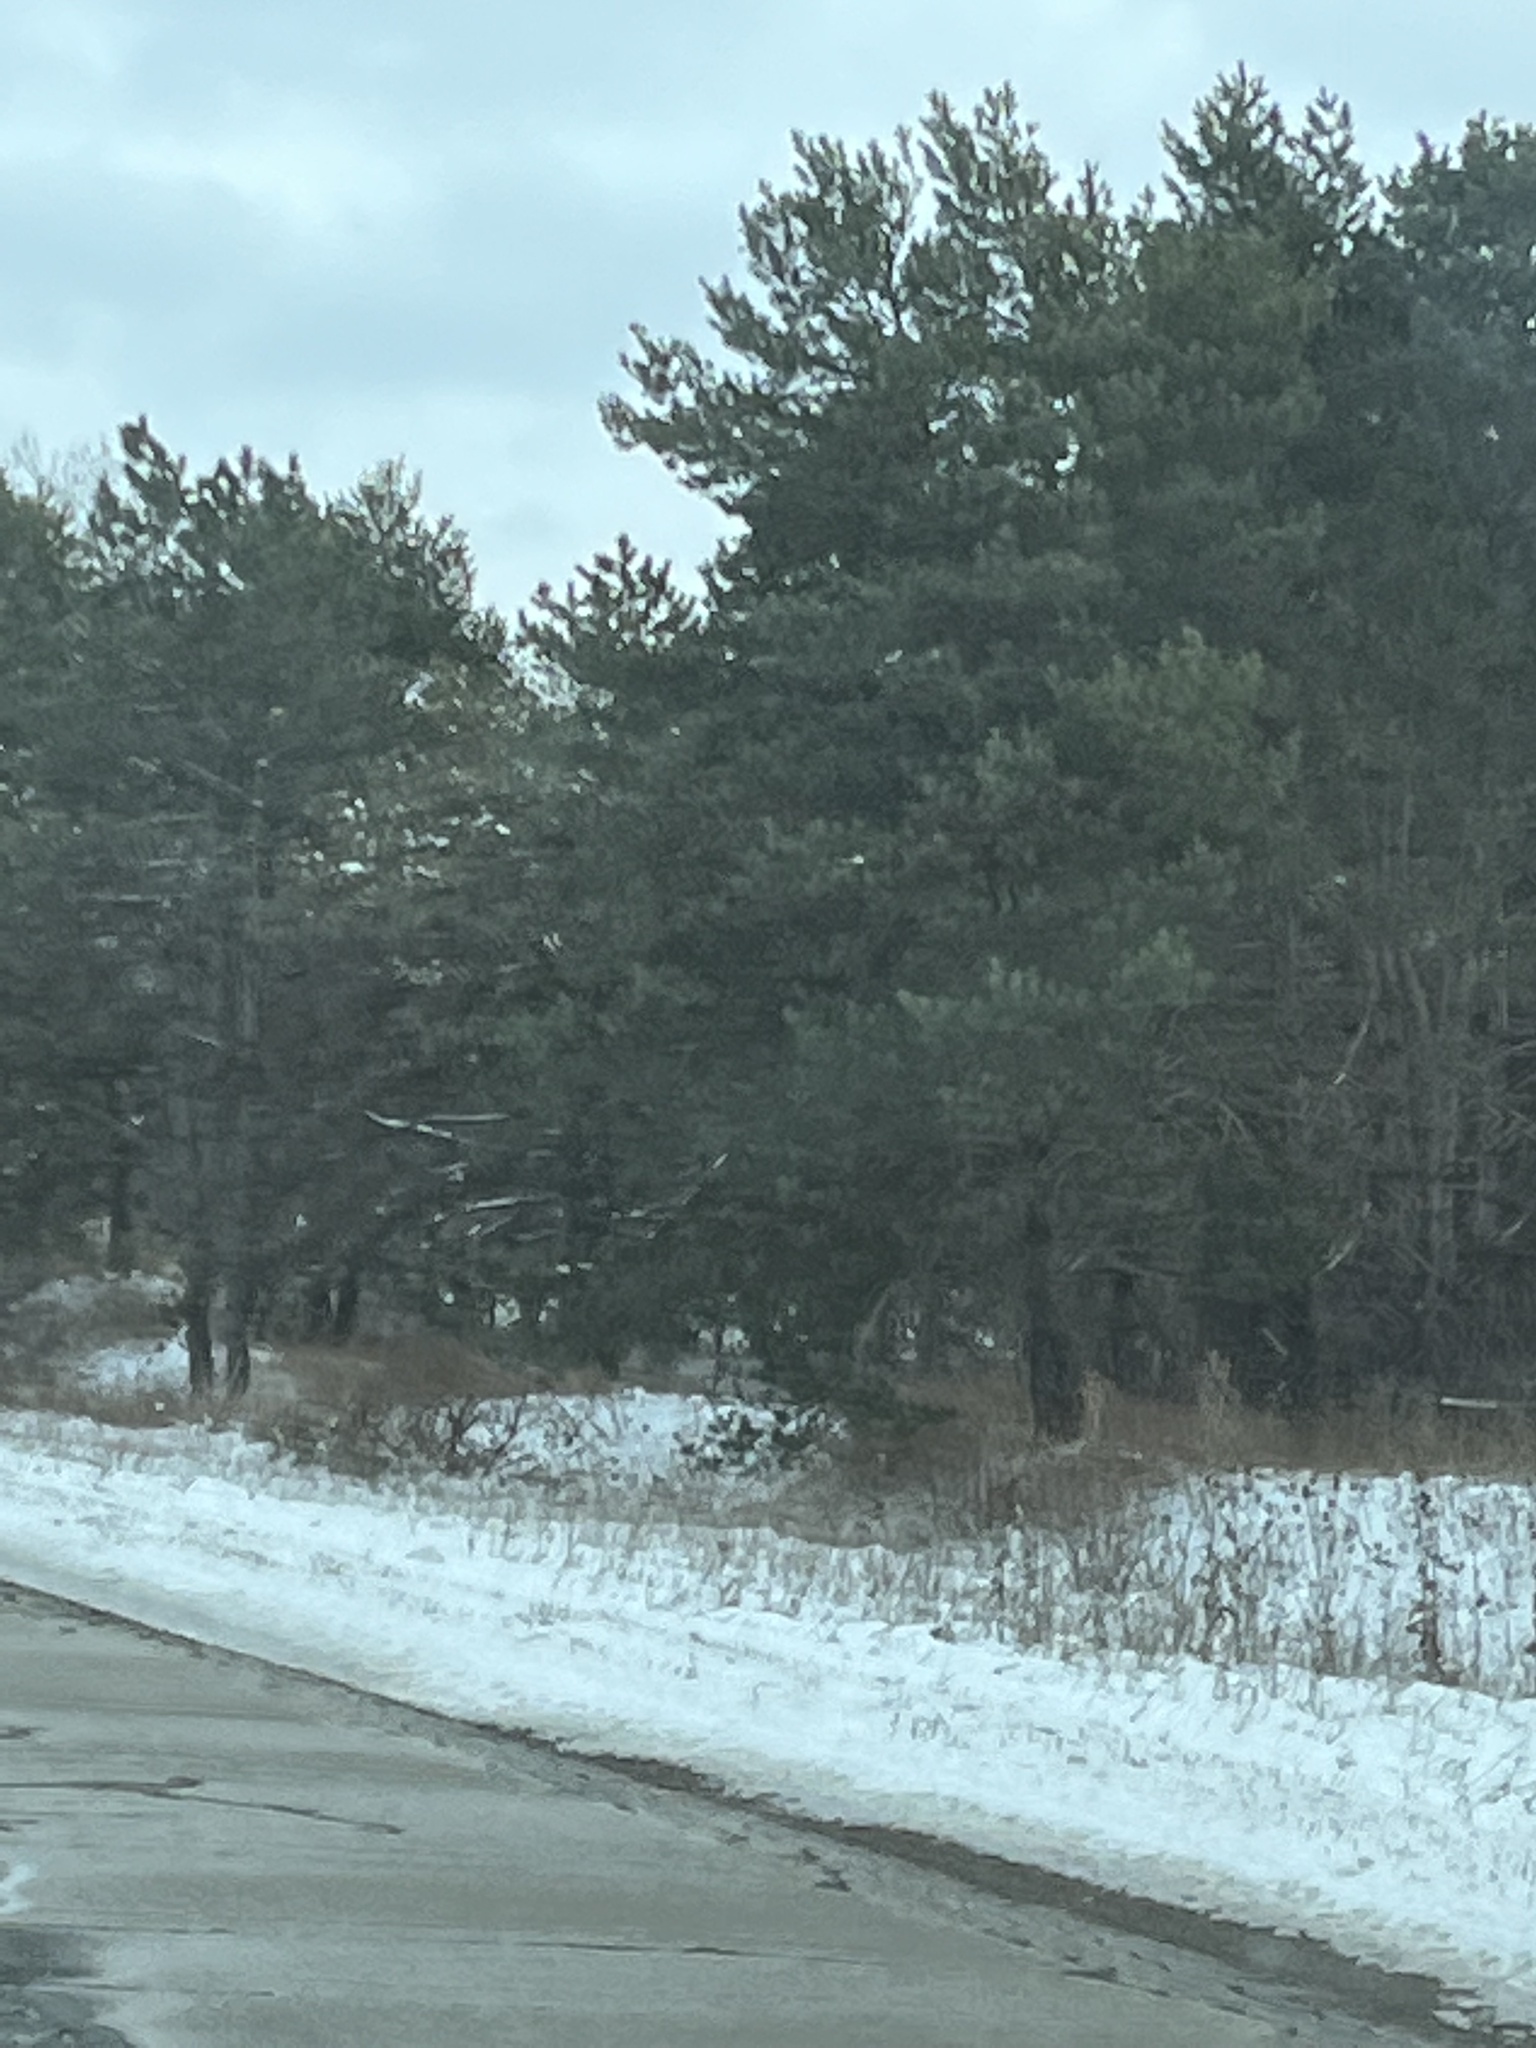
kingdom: Plantae
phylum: Tracheophyta
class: Pinopsida
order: Pinales
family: Pinaceae
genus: Pinus
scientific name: Pinus strobus
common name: Weymouth pine
